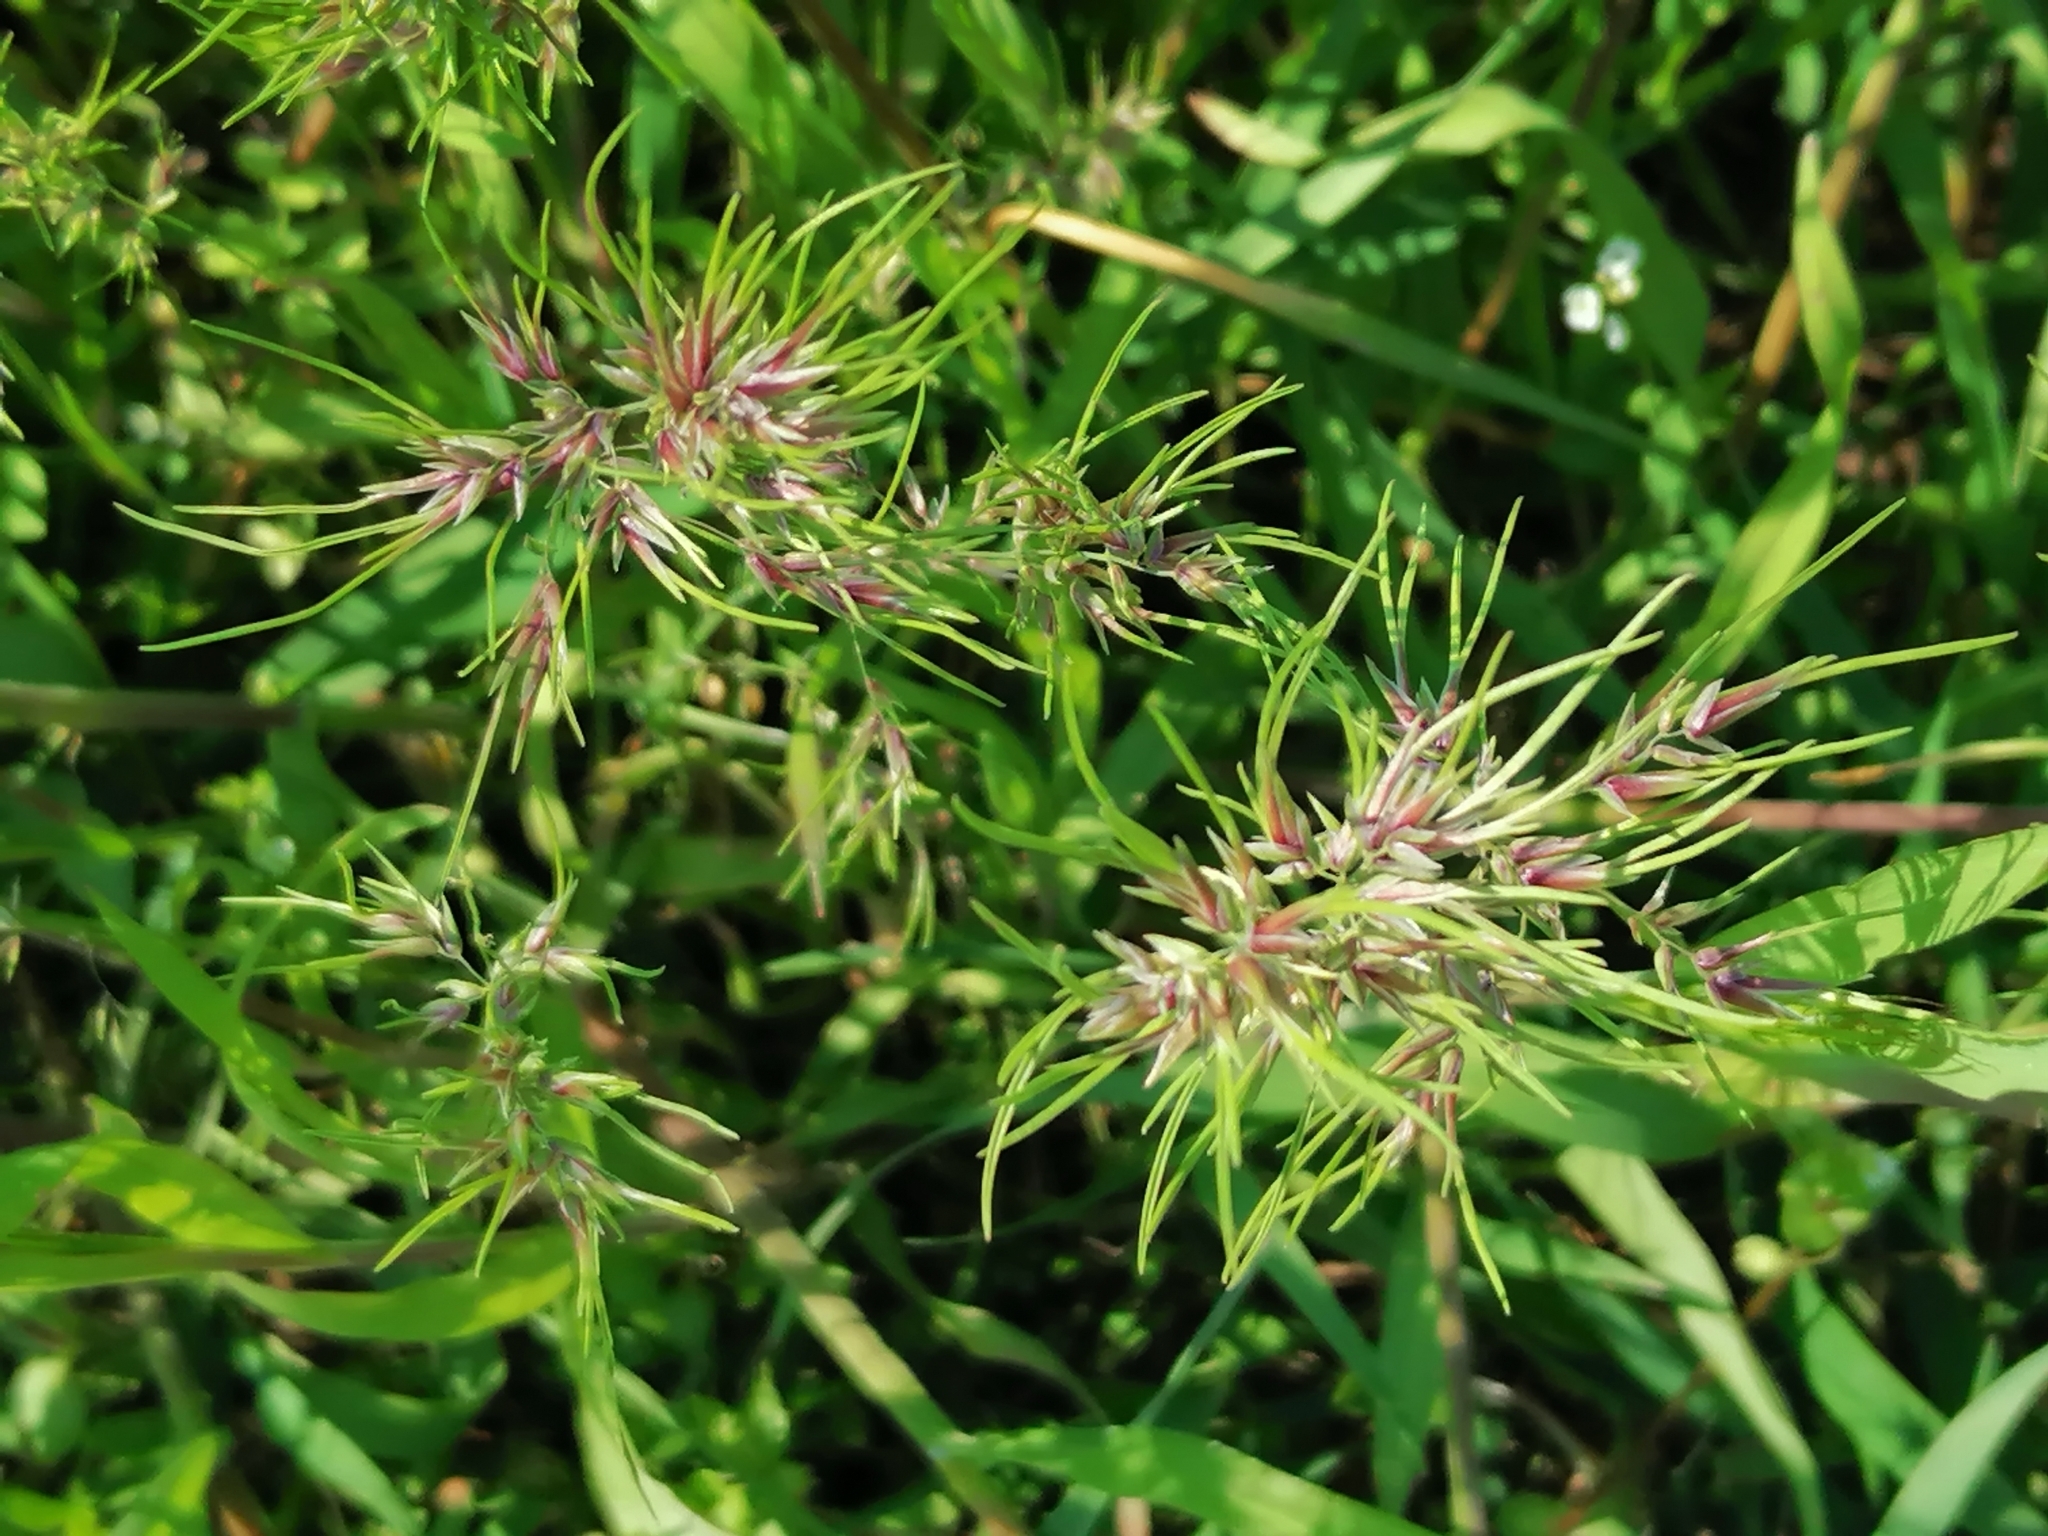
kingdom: Plantae
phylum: Tracheophyta
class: Liliopsida
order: Poales
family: Poaceae
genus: Poa
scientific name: Poa bulbosa
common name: Bulbous bluegrass
